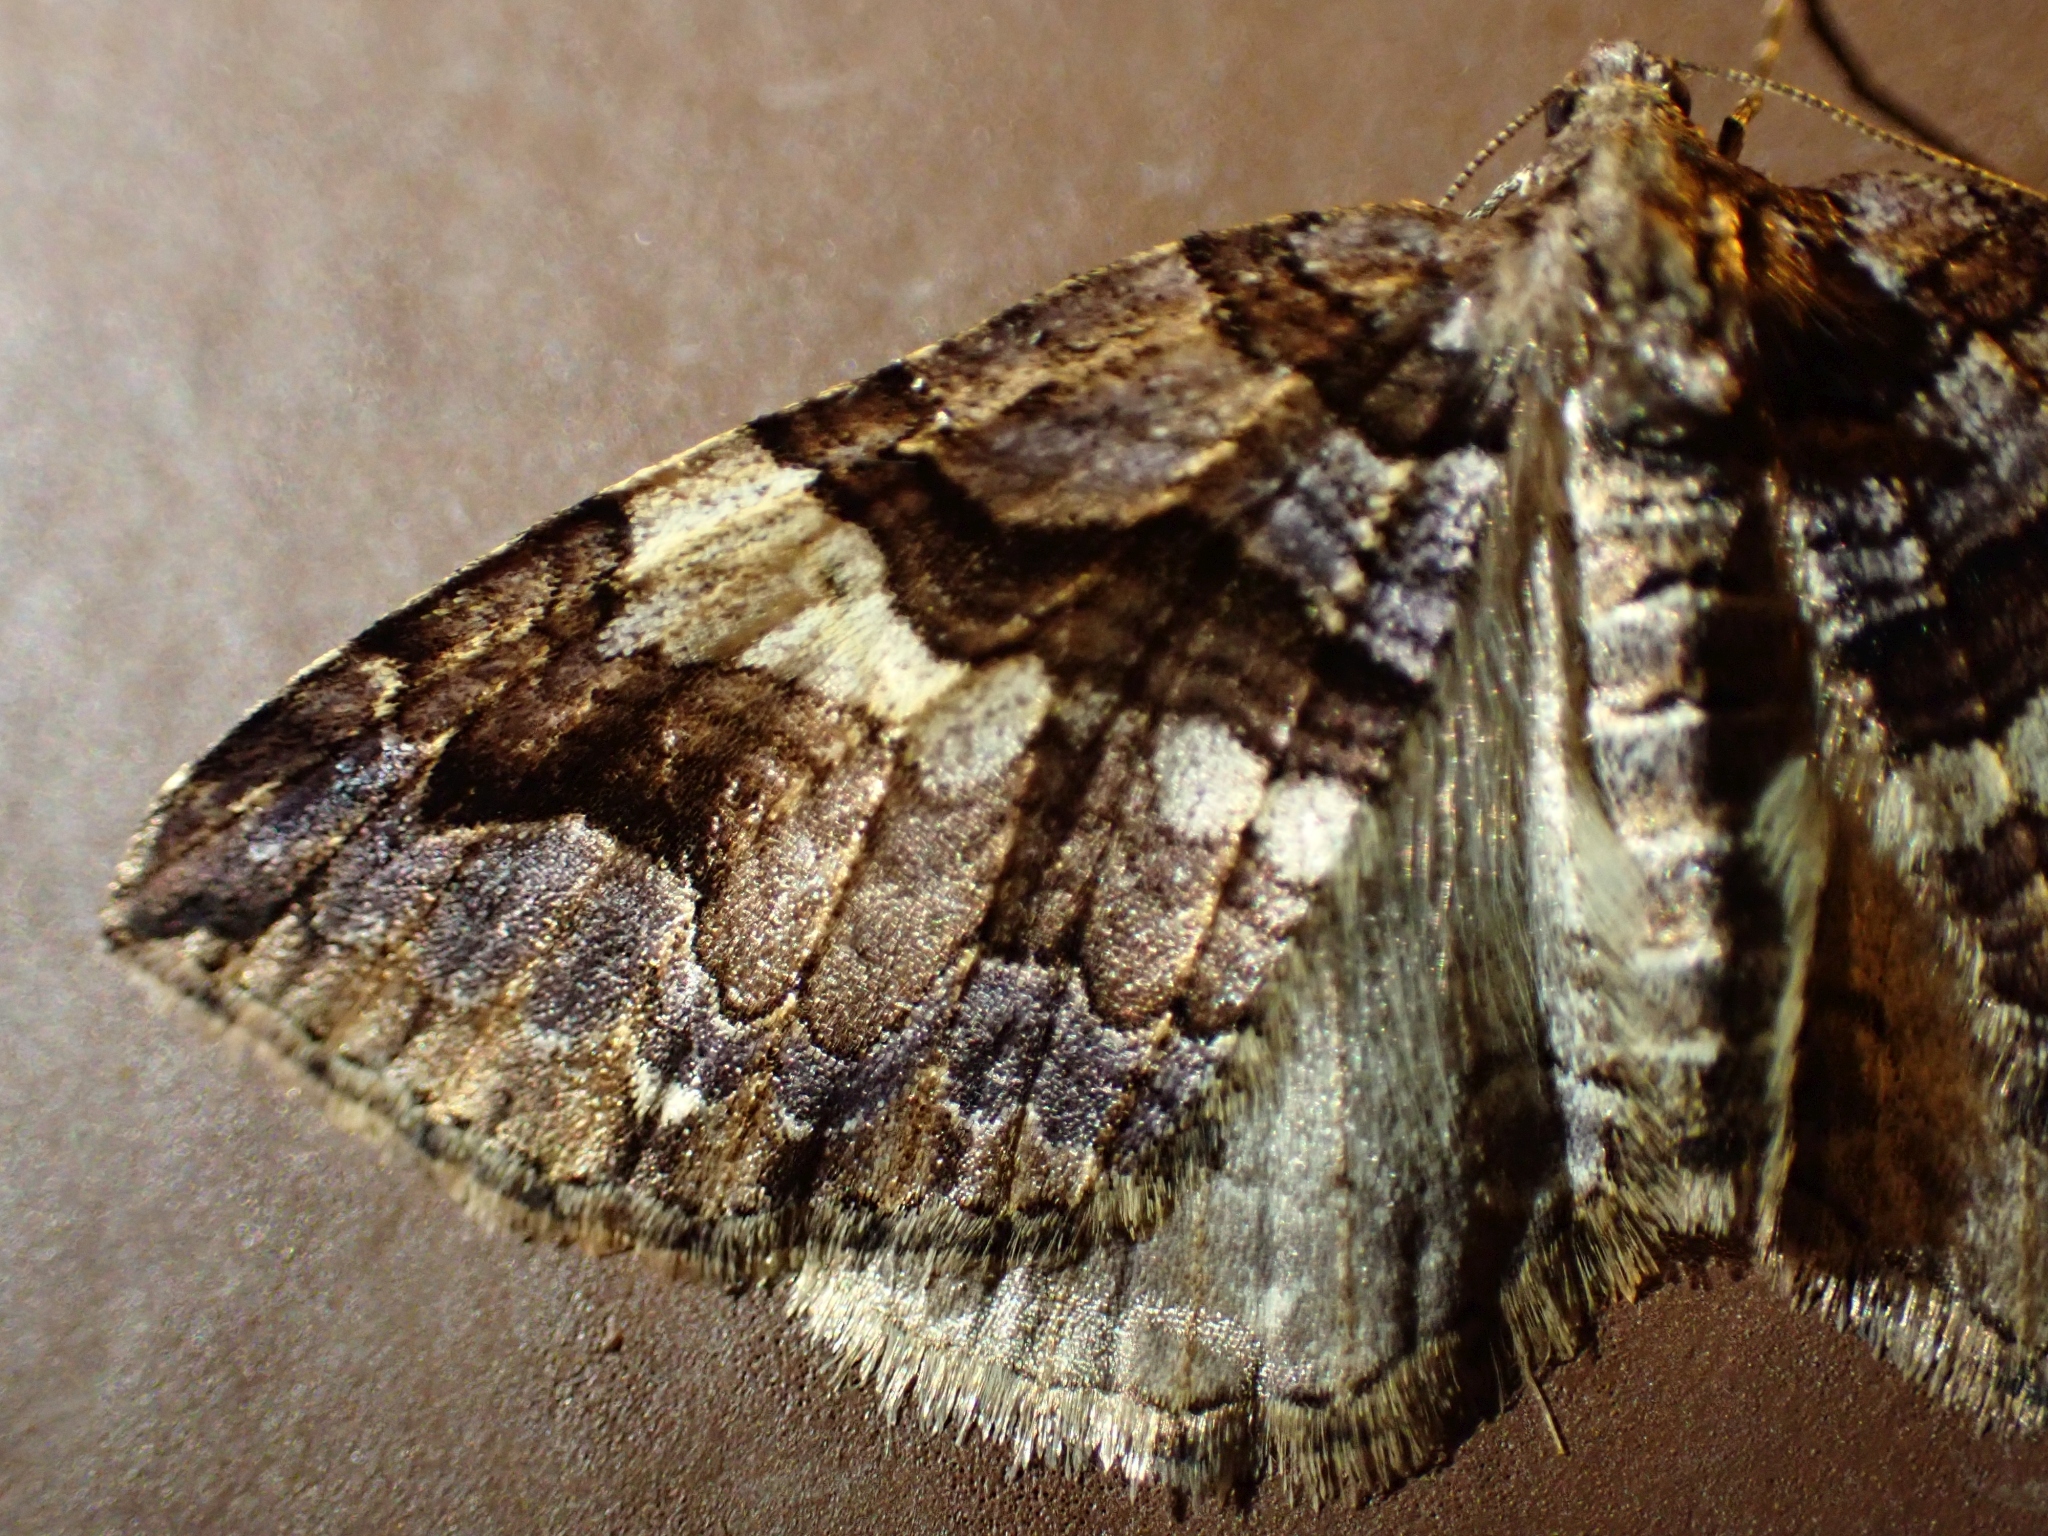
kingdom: Animalia
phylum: Arthropoda
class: Insecta
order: Lepidoptera
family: Geometridae
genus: Anticlea
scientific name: Anticlea vasiliata
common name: Variable carpet
